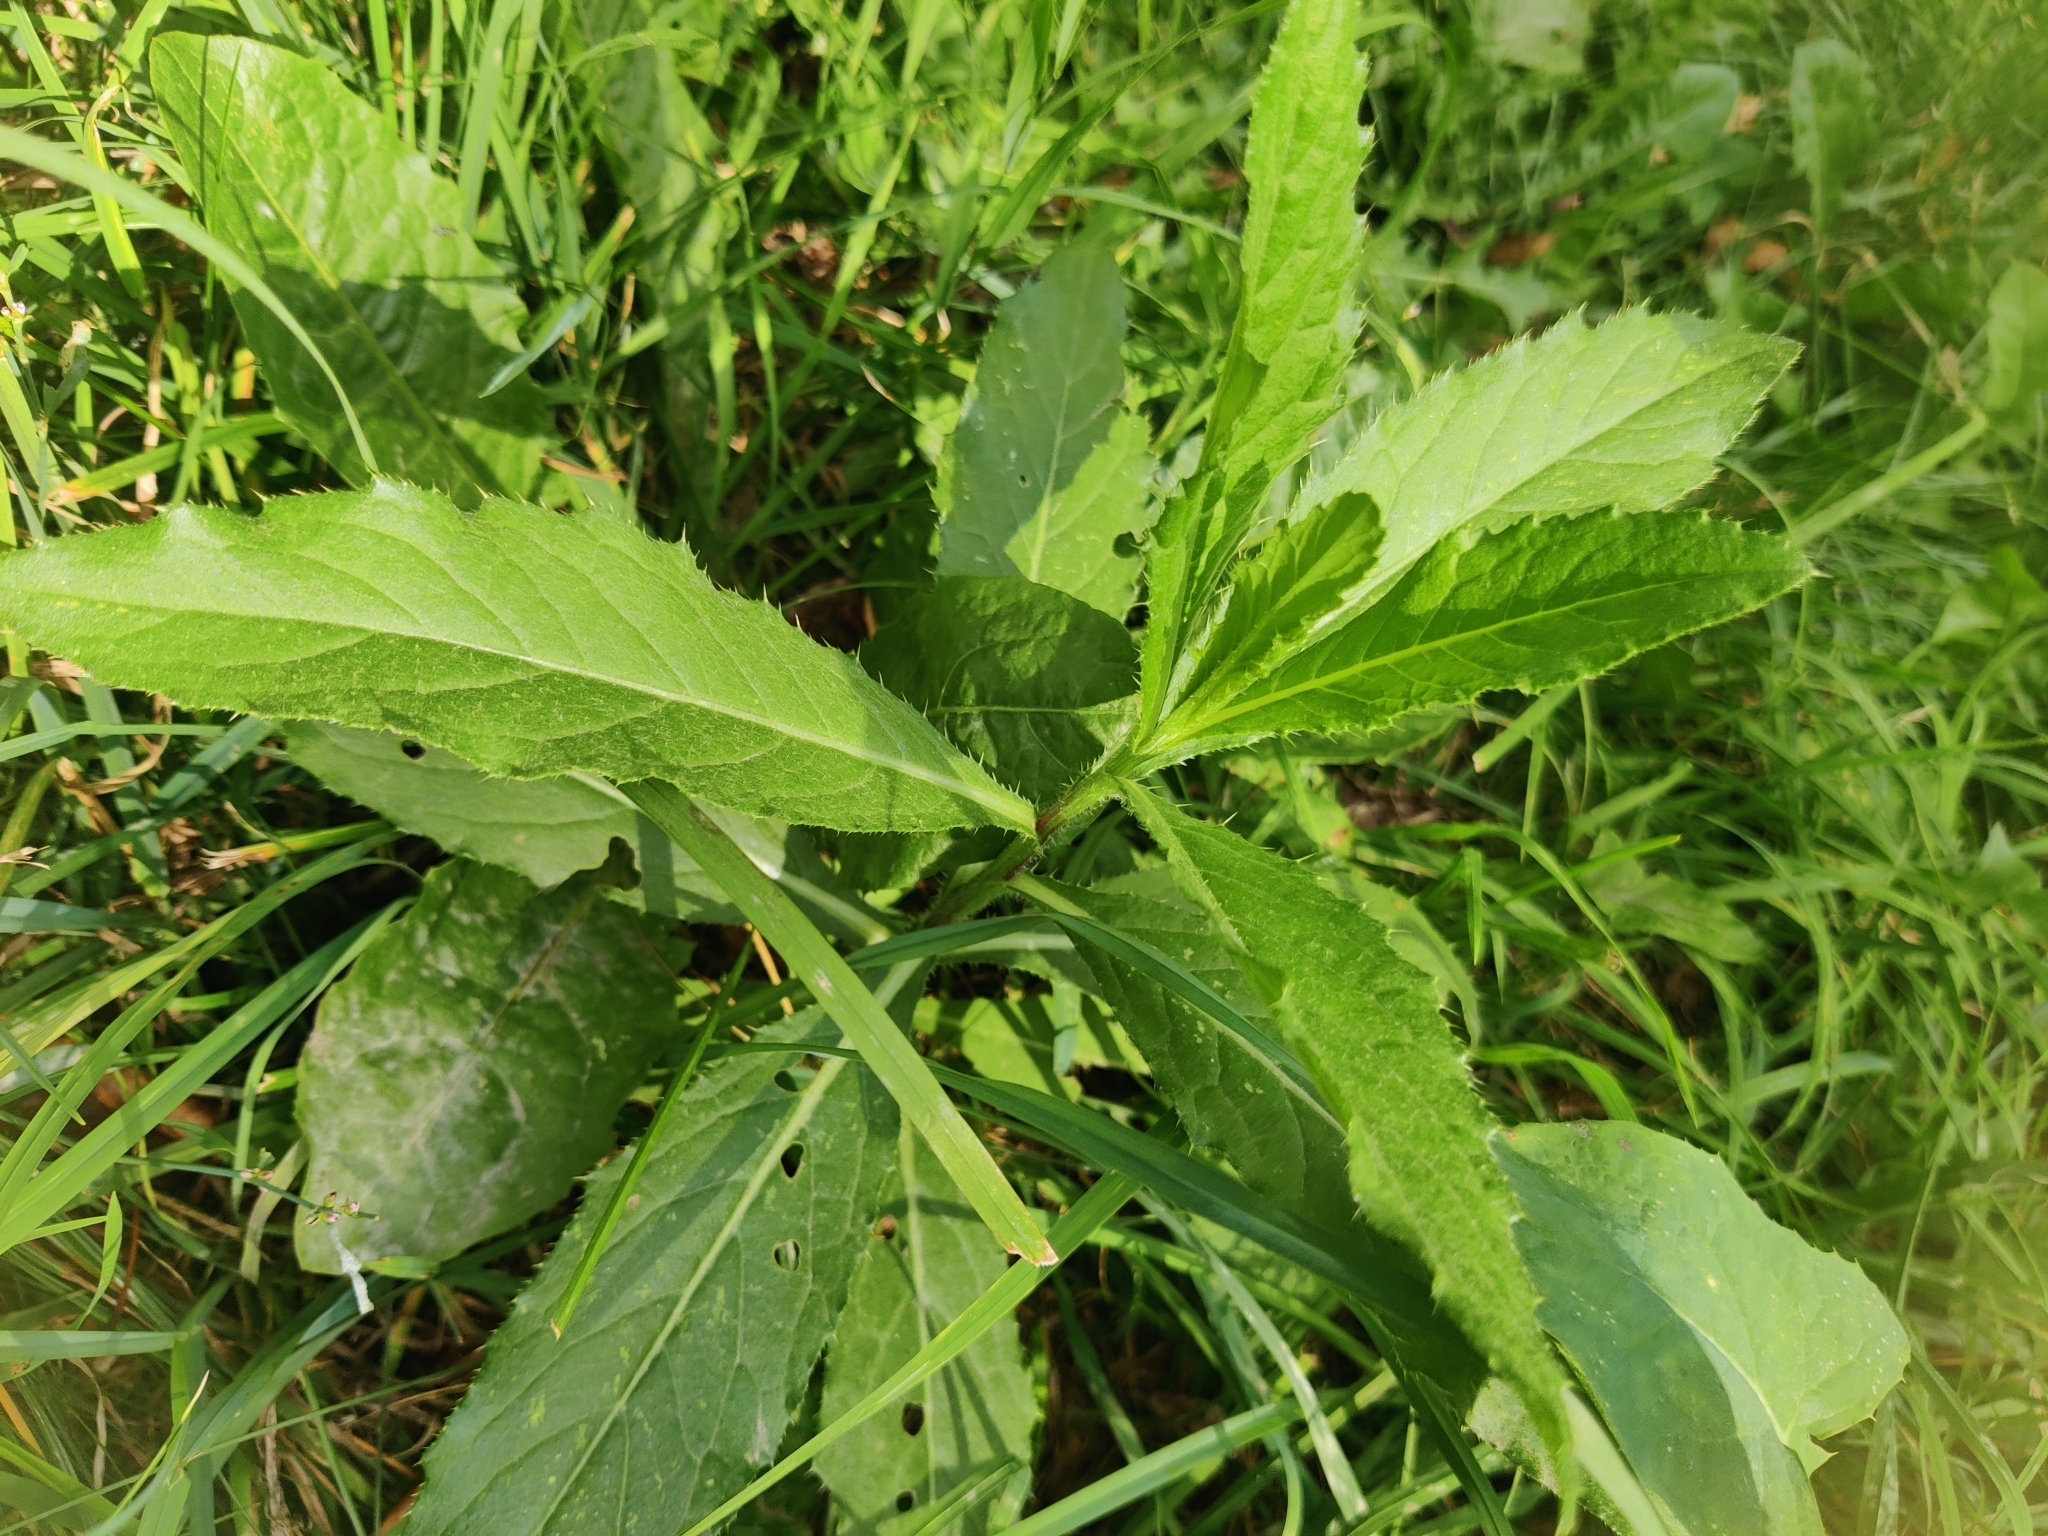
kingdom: Plantae
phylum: Tracheophyta
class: Magnoliopsida
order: Asterales
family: Asteraceae
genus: Cirsium
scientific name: Cirsium arvense
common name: Creeping thistle
